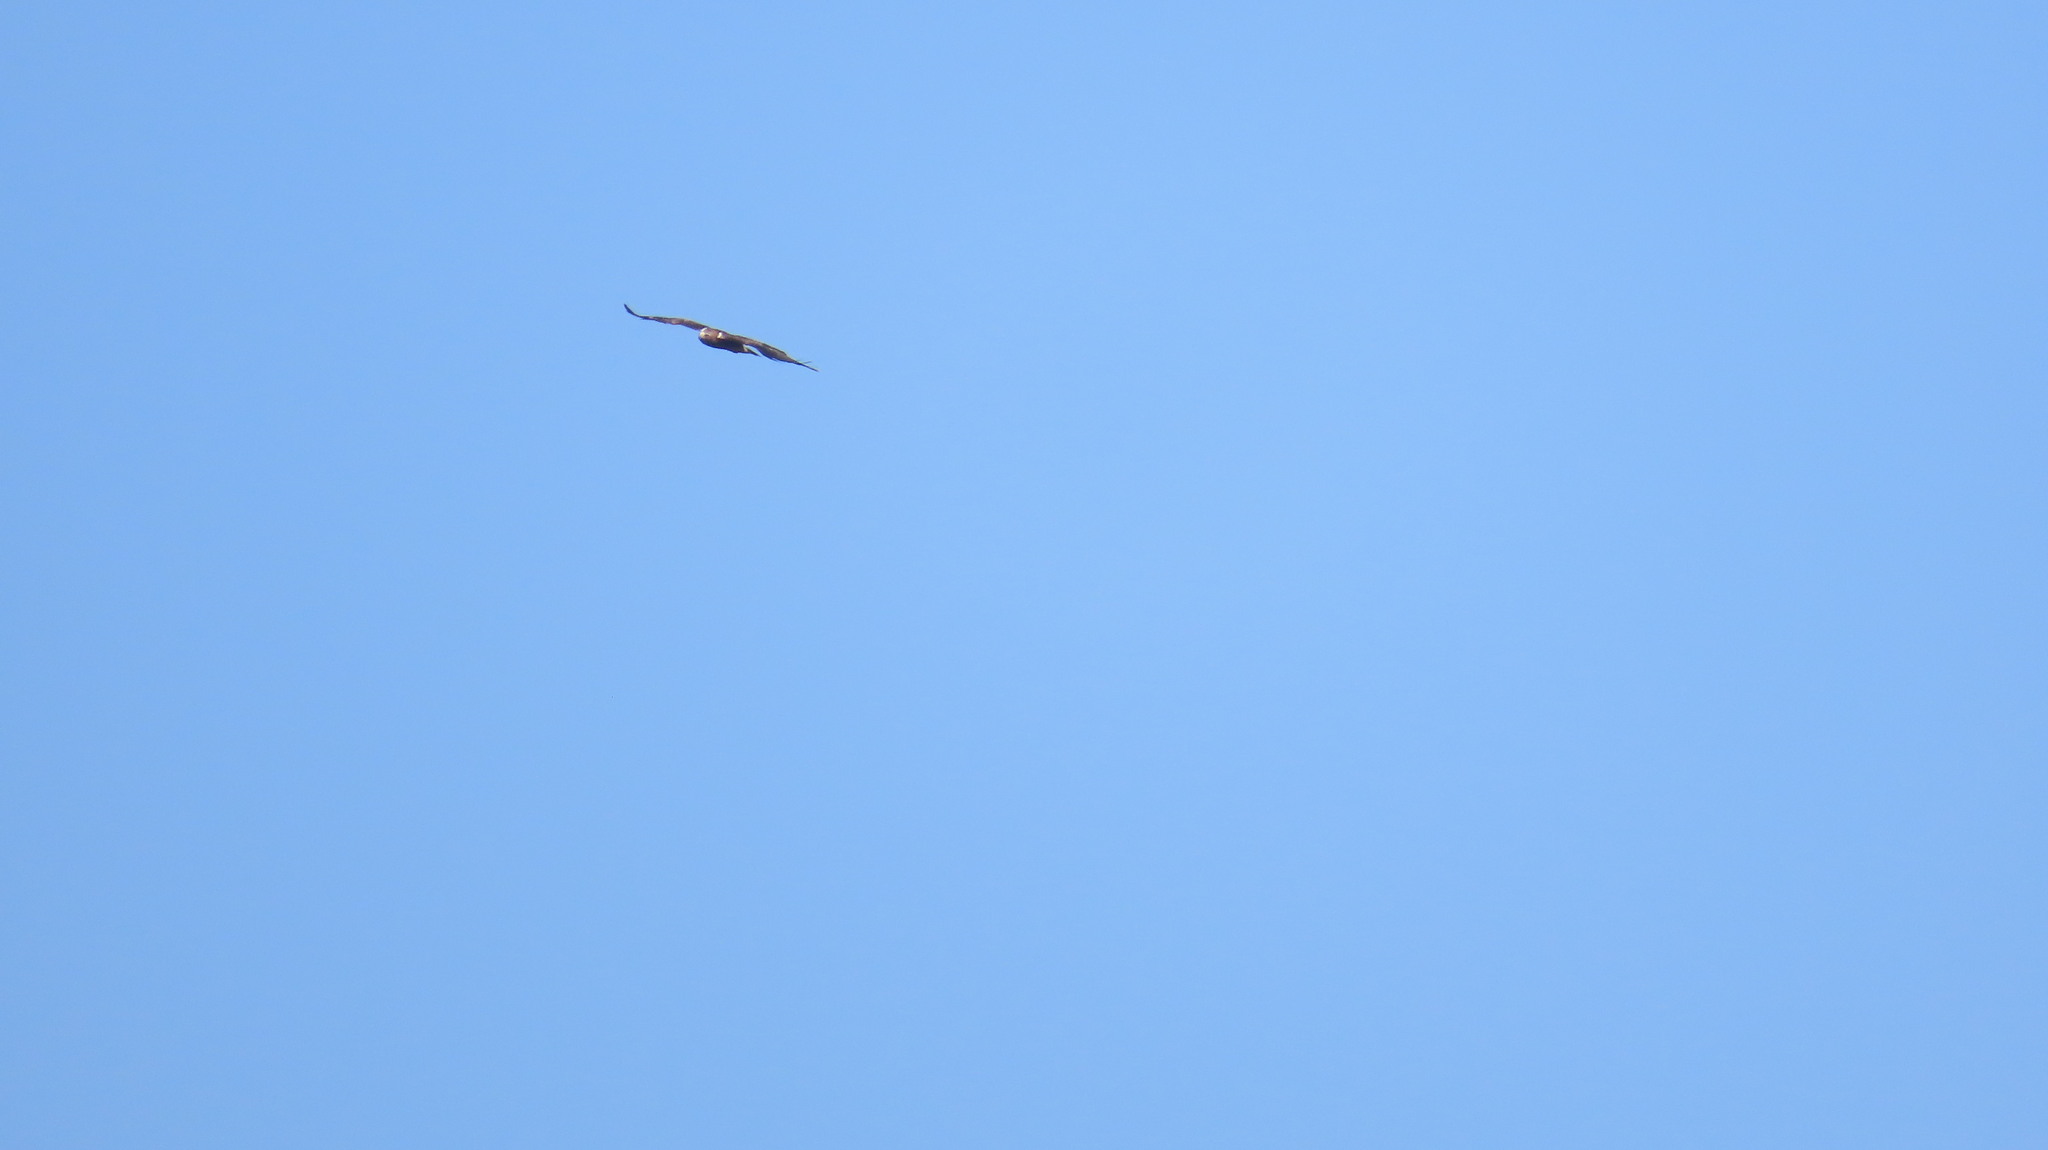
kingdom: Animalia
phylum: Chordata
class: Aves
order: Accipitriformes
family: Accipitridae
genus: Hieraaetus
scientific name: Hieraaetus pennatus
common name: Booted eagle
